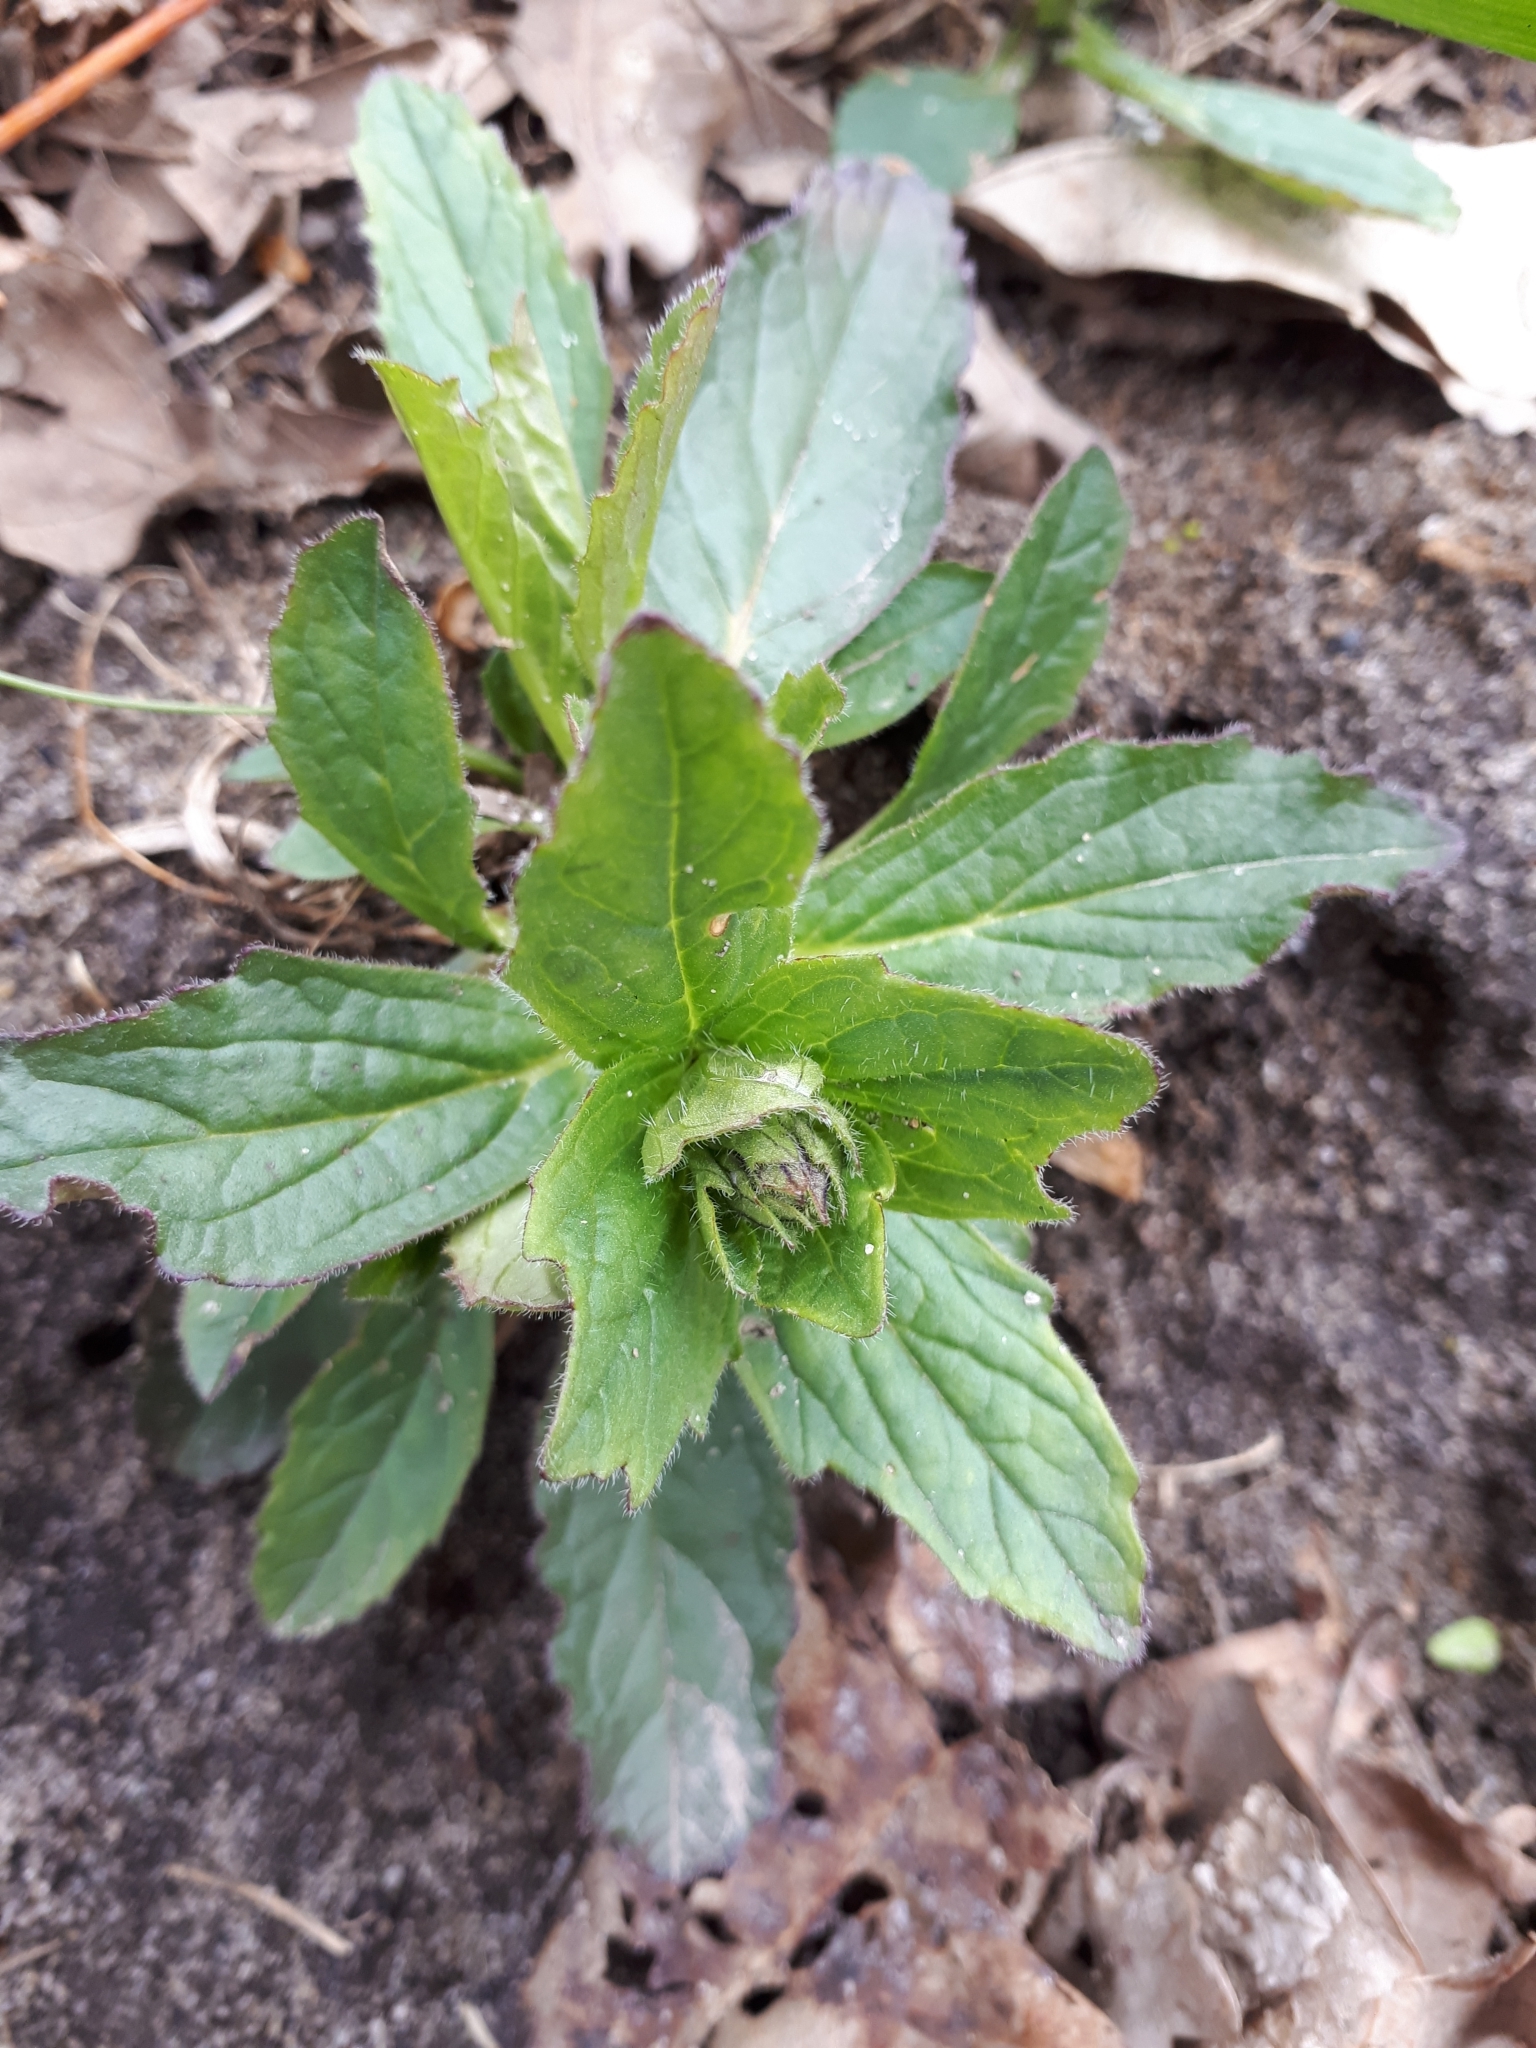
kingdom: Plantae
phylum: Tracheophyta
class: Magnoliopsida
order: Lamiales
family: Lamiaceae
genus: Ajuga
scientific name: Ajuga genevensis
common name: Blue bugle
